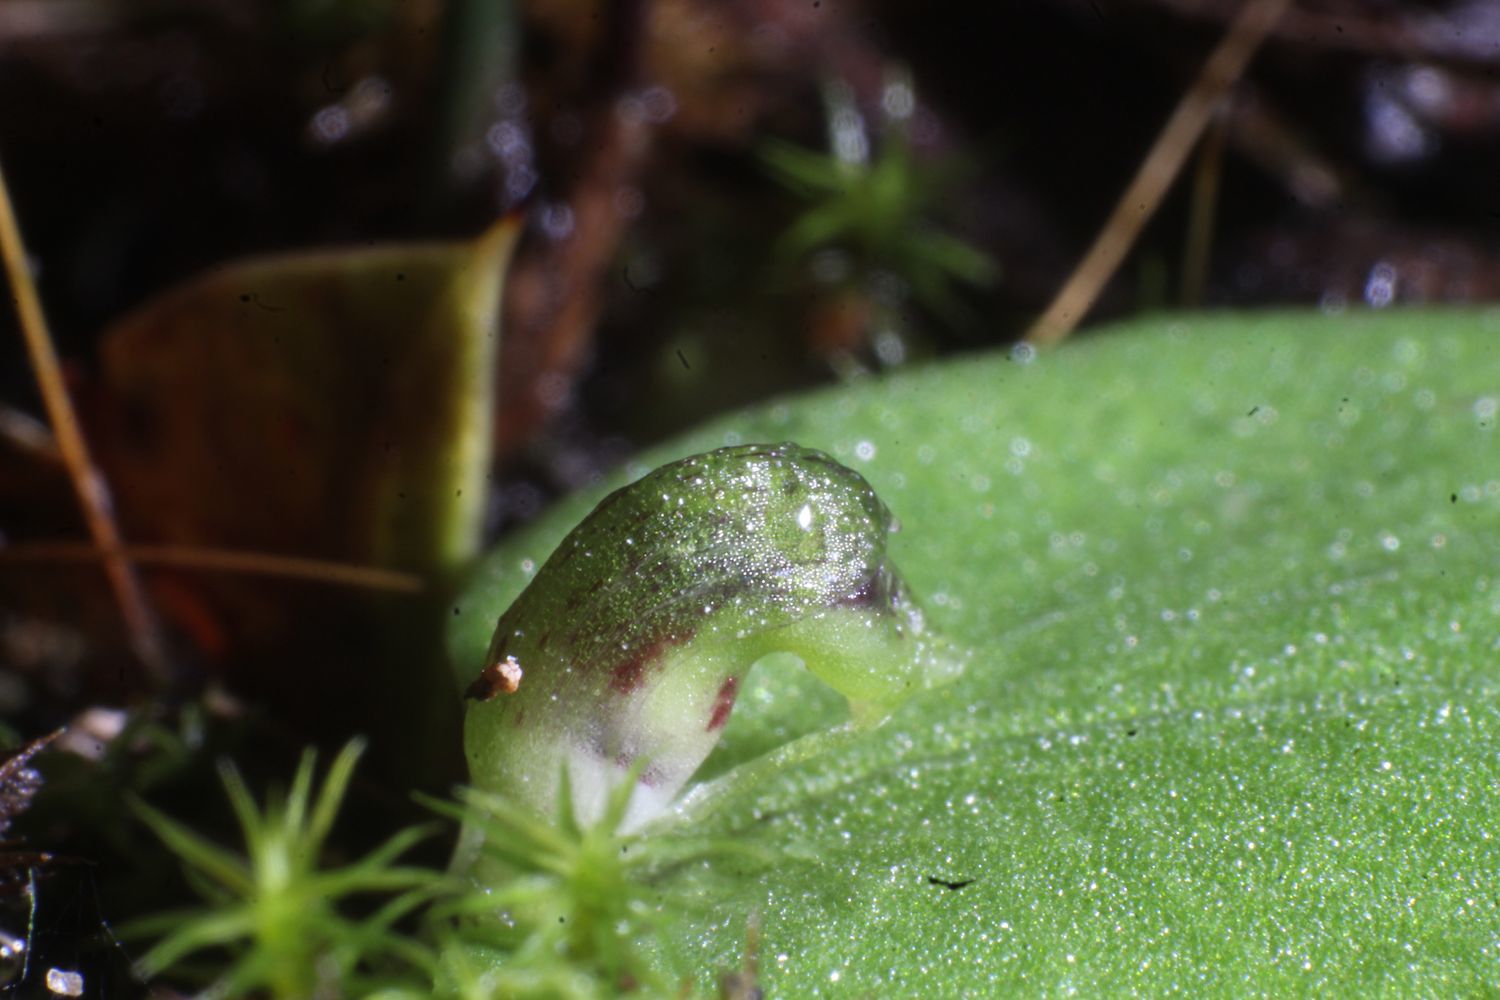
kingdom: Plantae
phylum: Tracheophyta
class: Liliopsida
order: Asparagales
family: Orchidaceae
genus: Corybas
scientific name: Corybas despectans
